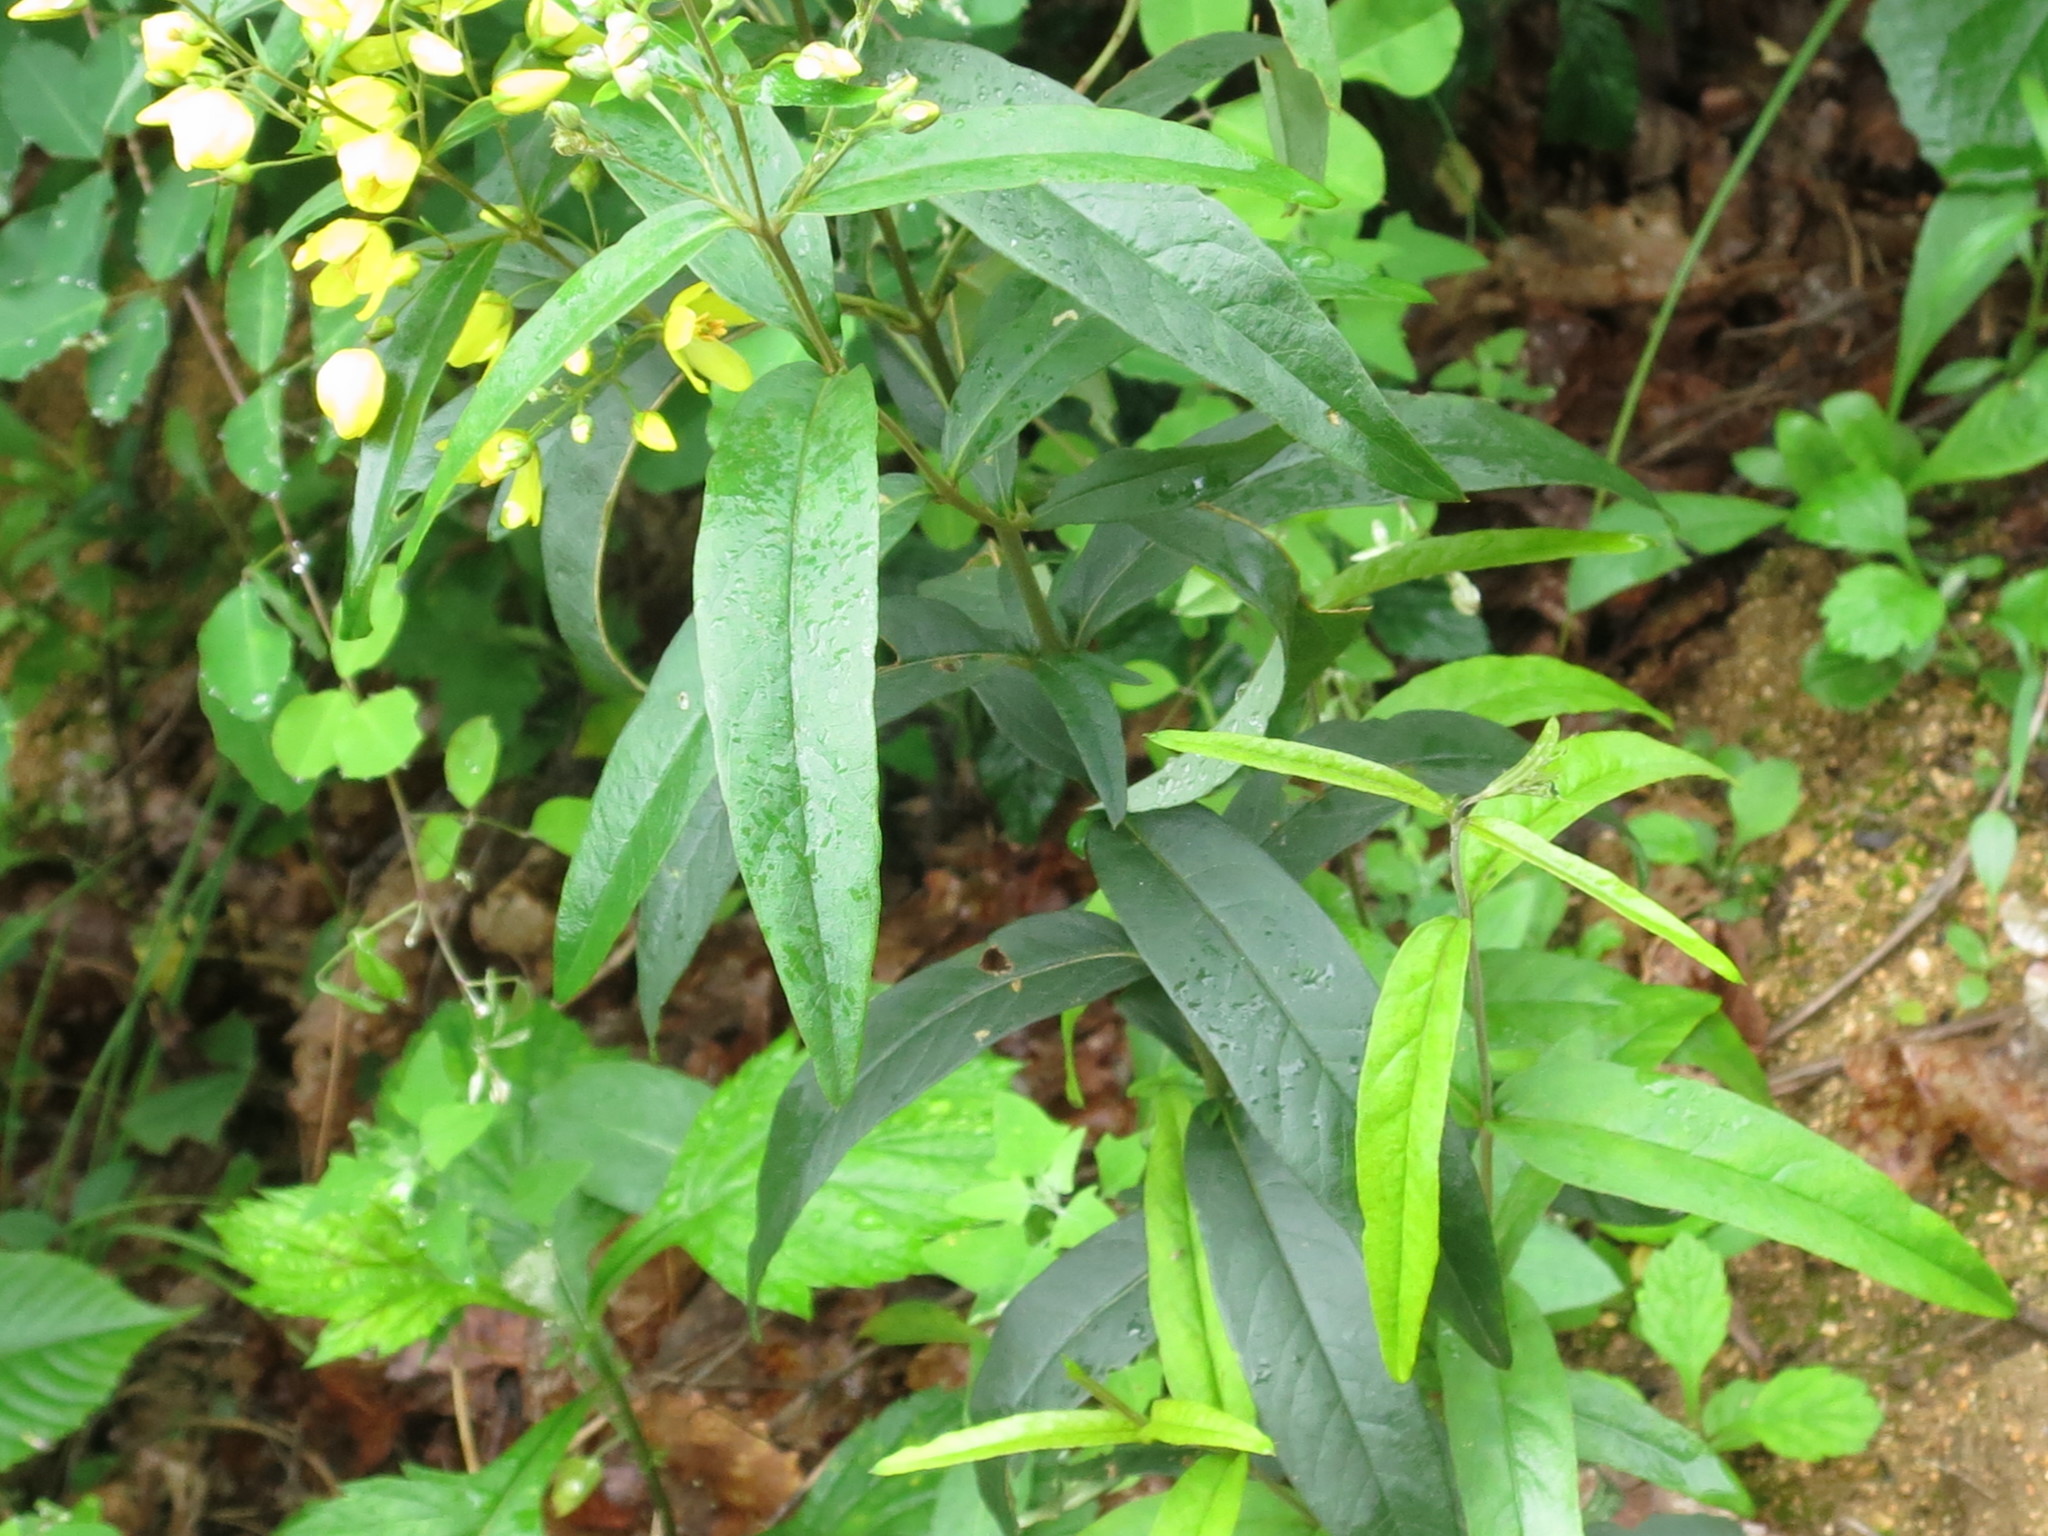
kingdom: Plantae
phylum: Tracheophyta
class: Magnoliopsida
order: Ericales
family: Primulaceae
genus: Lysimachia
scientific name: Lysimachia davurica
